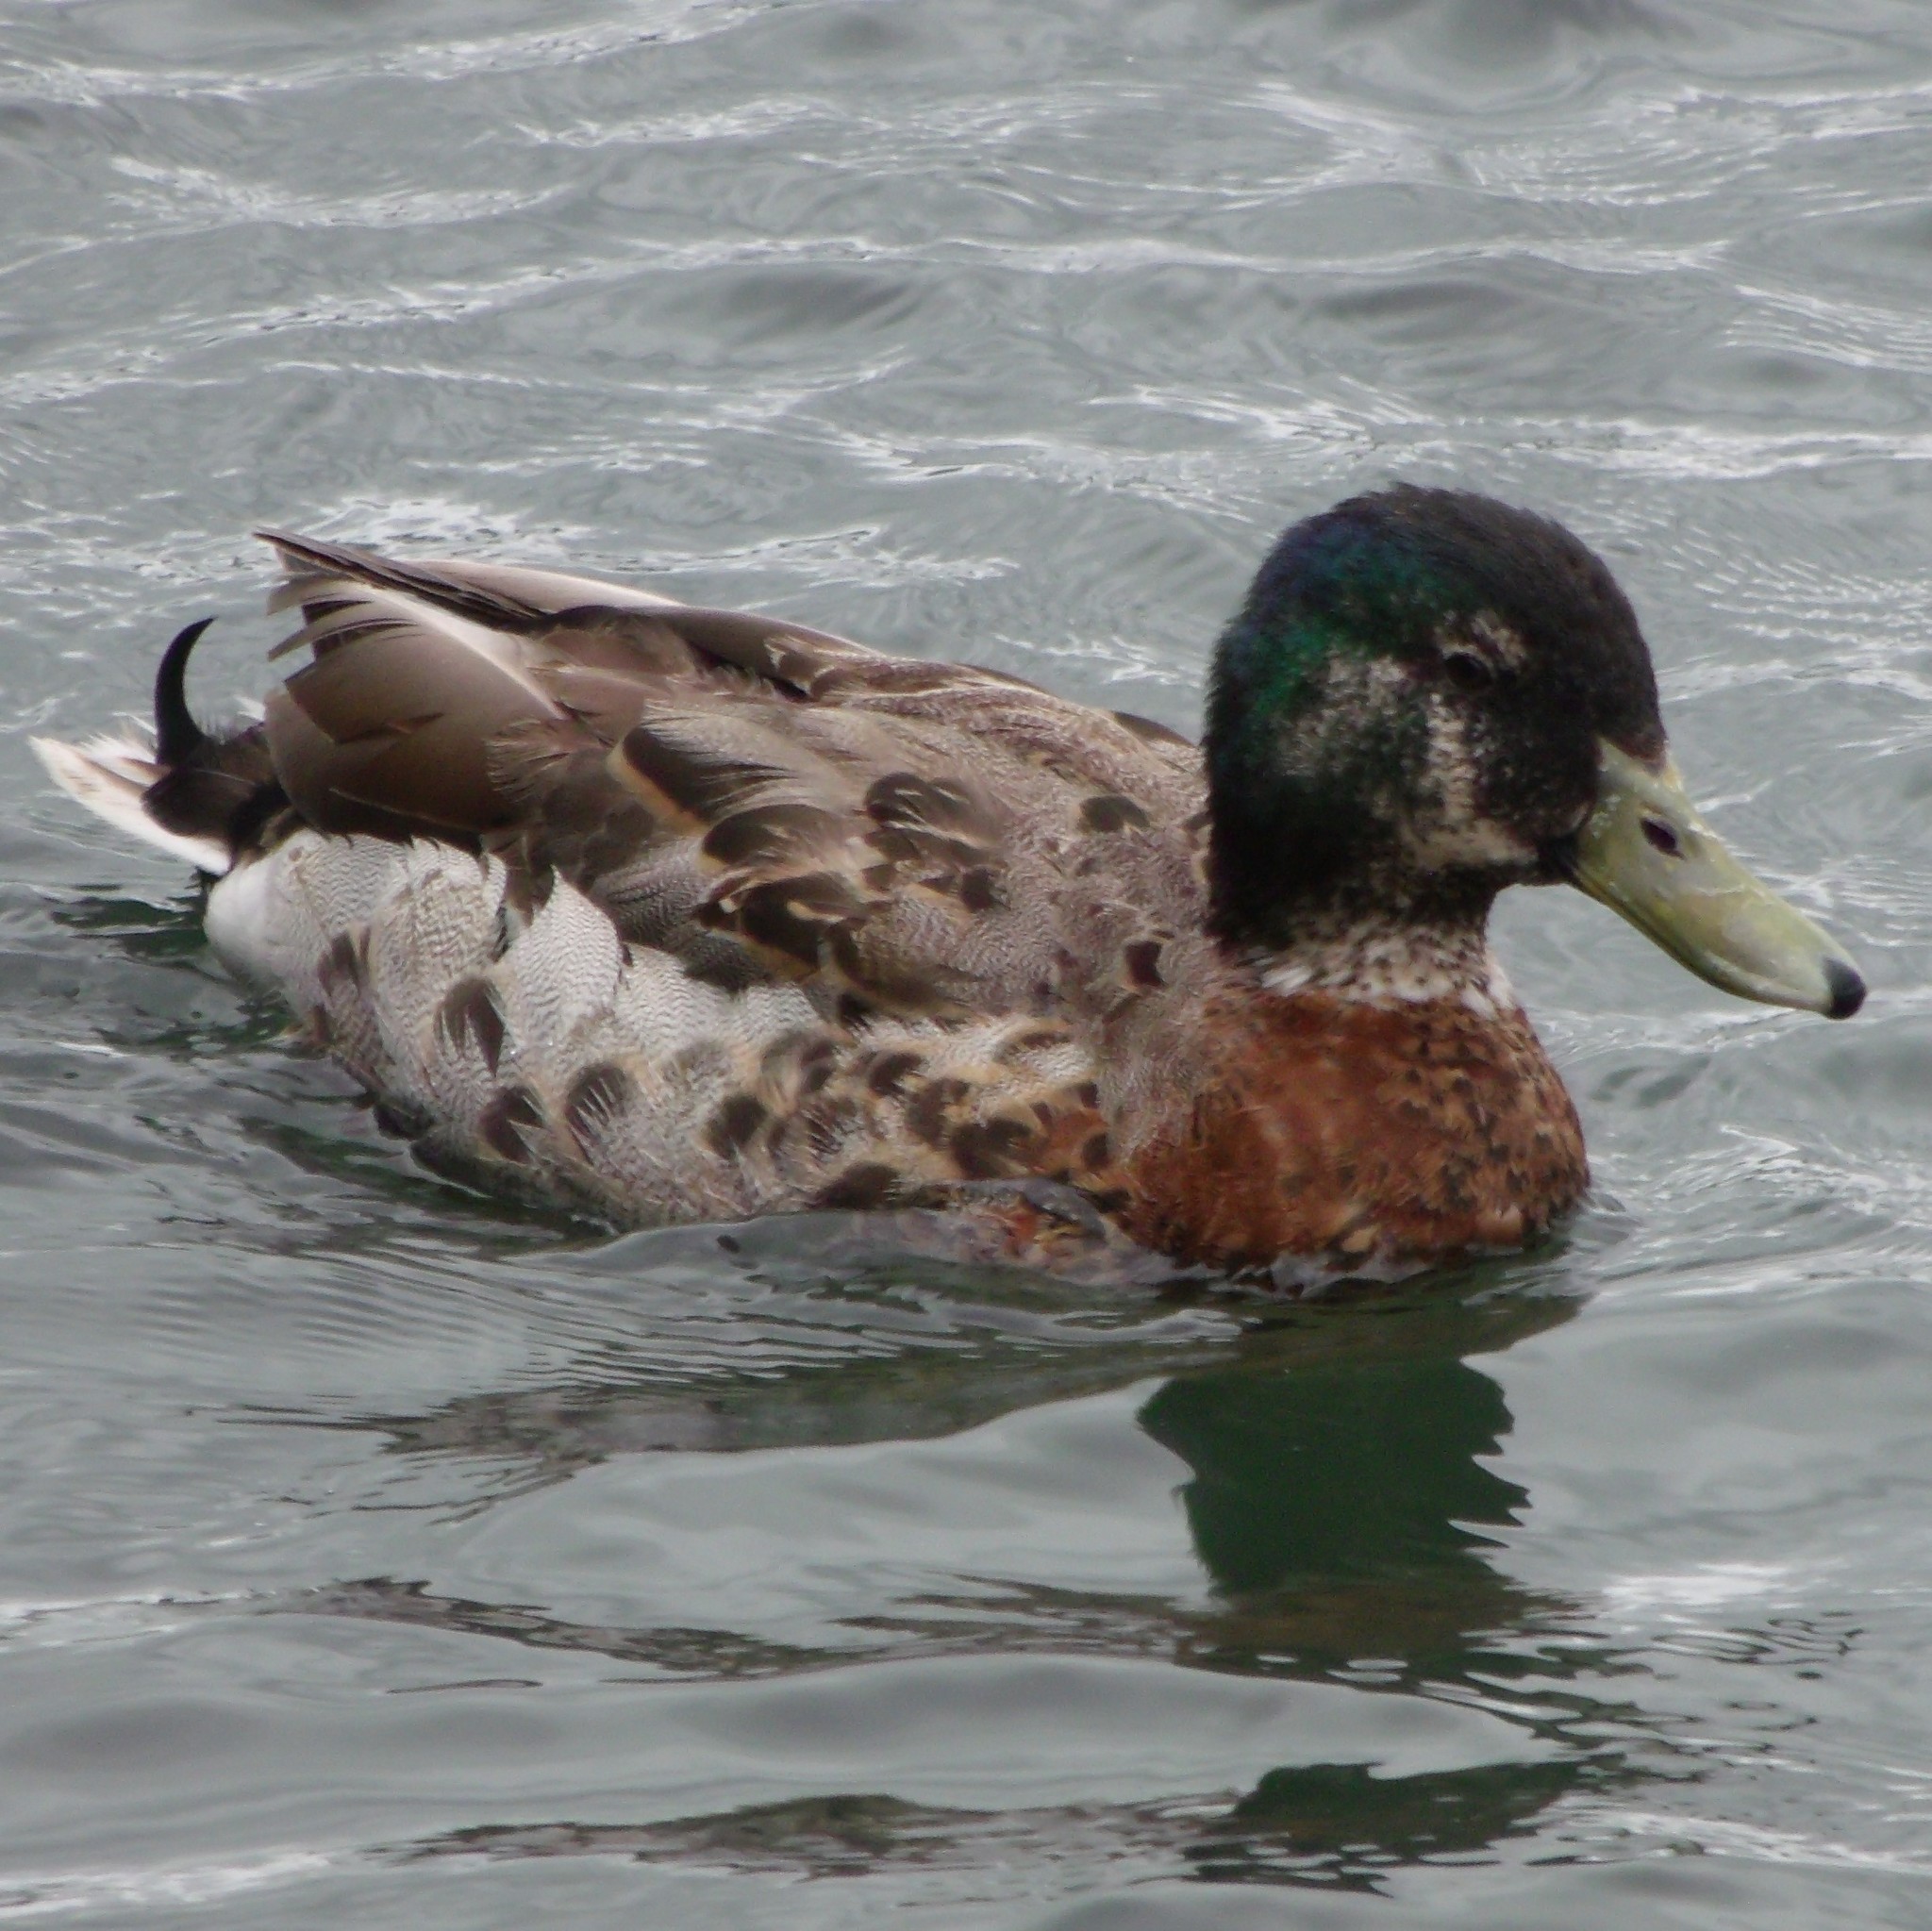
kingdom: Animalia
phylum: Chordata
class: Aves
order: Anseriformes
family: Anatidae
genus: Anas
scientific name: Anas platyrhynchos
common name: Mallard
